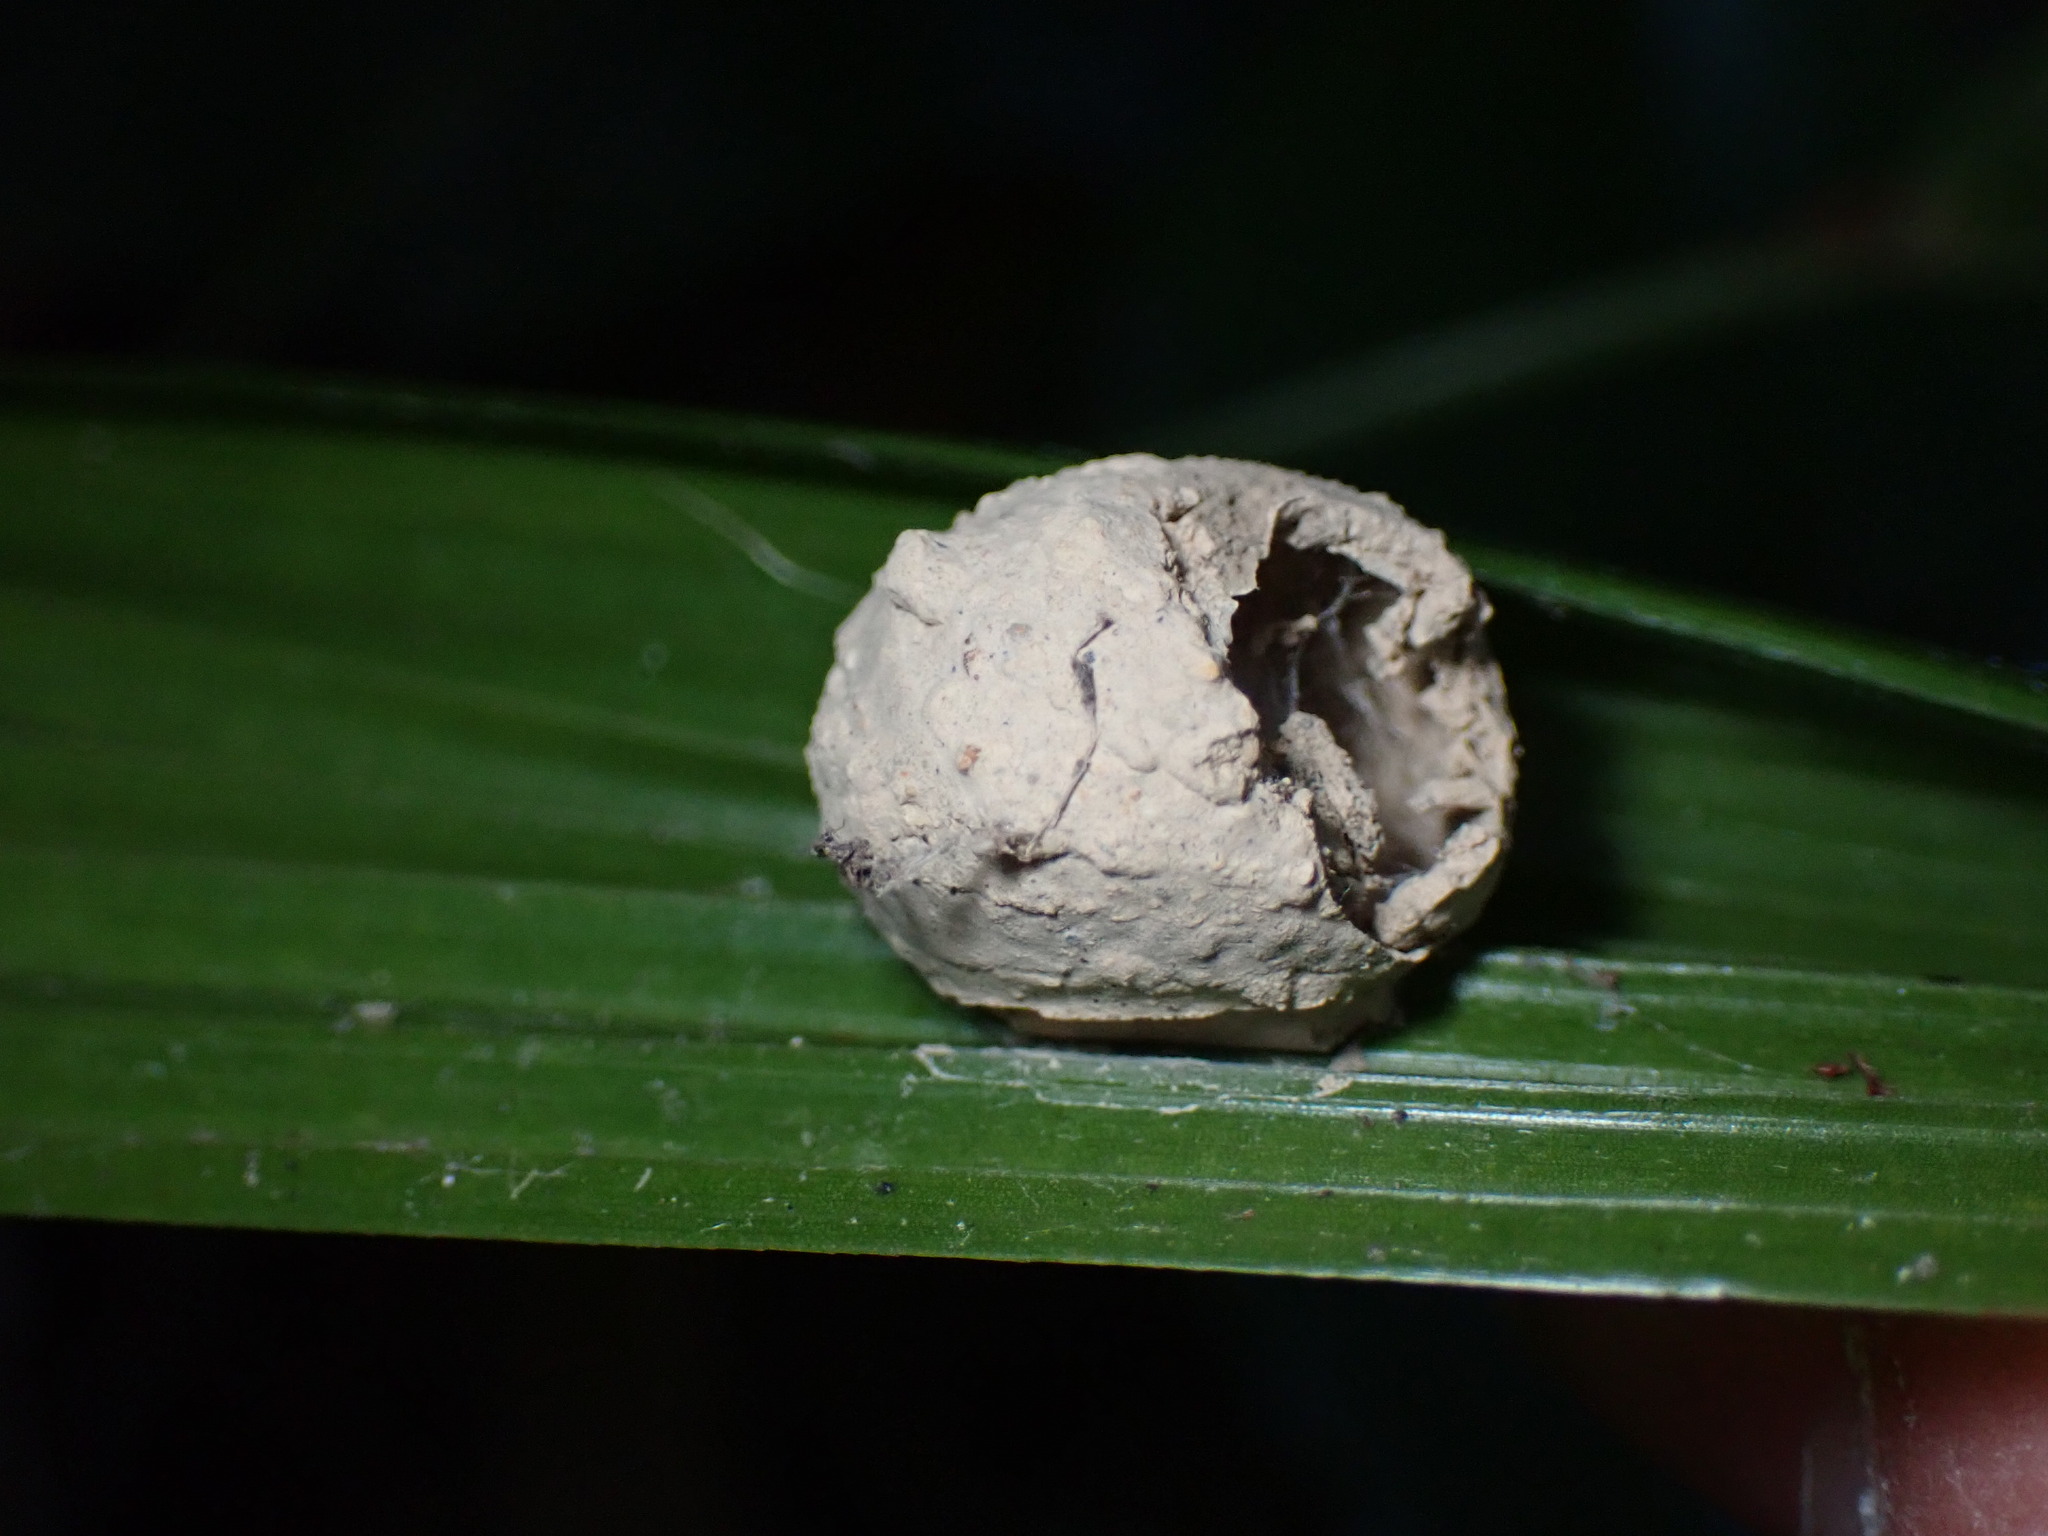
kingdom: Animalia
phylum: Arthropoda
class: Insecta
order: Hymenoptera
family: Eumenidae
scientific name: Eumenidae
